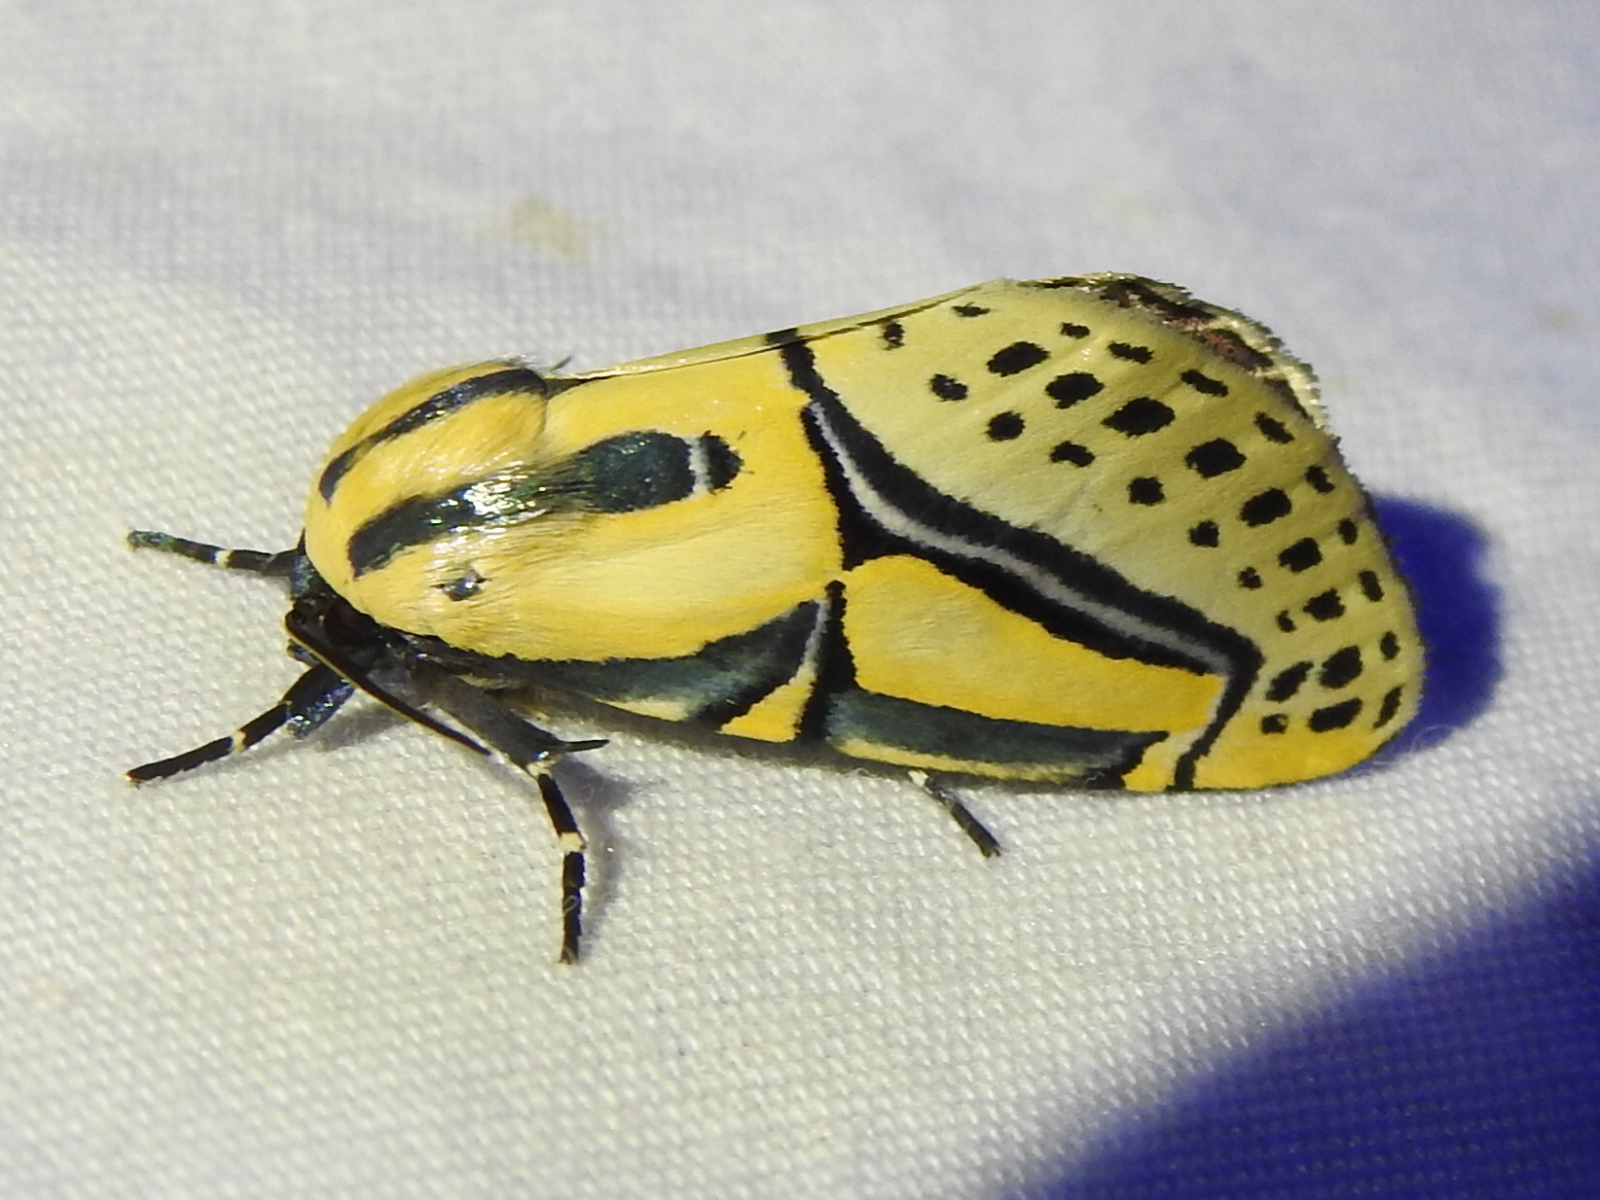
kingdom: Animalia
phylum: Arthropoda
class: Insecta
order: Lepidoptera
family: Erebidae
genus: Diphthera
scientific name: Diphthera festiva
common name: Hieroglyphic moth
